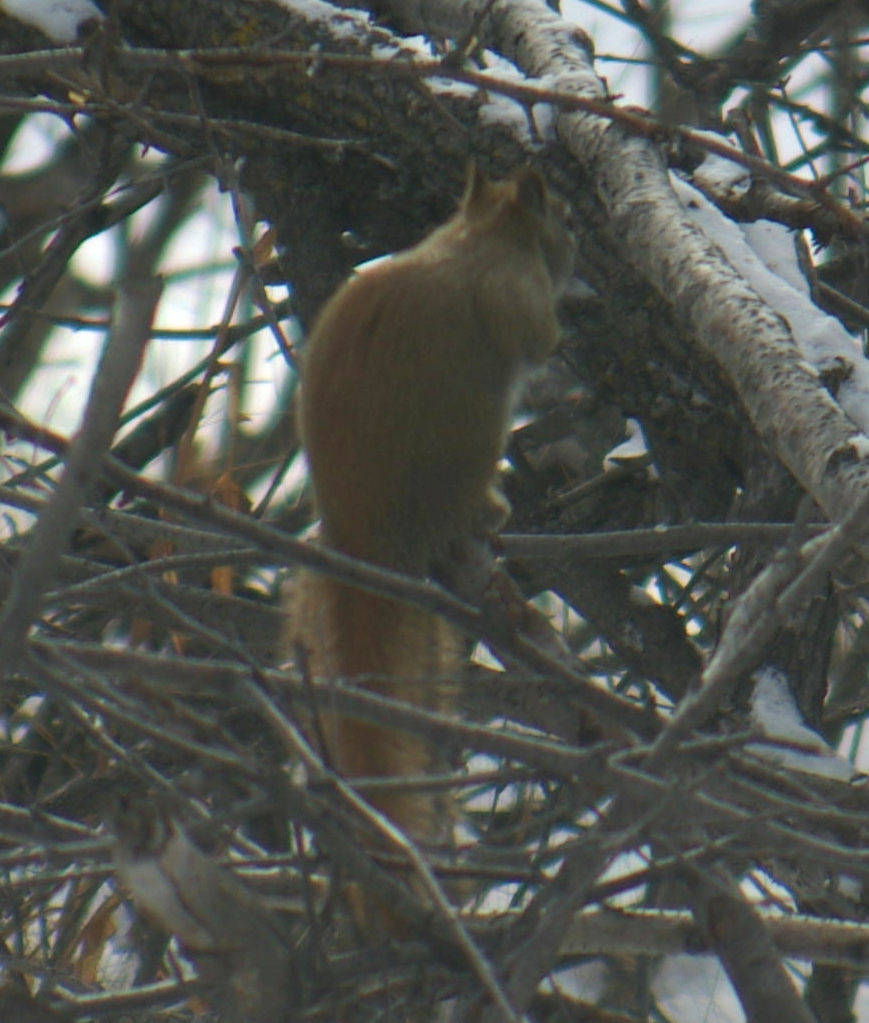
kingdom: Animalia
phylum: Chordata
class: Mammalia
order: Rodentia
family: Sciuridae
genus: Tamiasciurus
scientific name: Tamiasciurus hudsonicus
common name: Red squirrel
